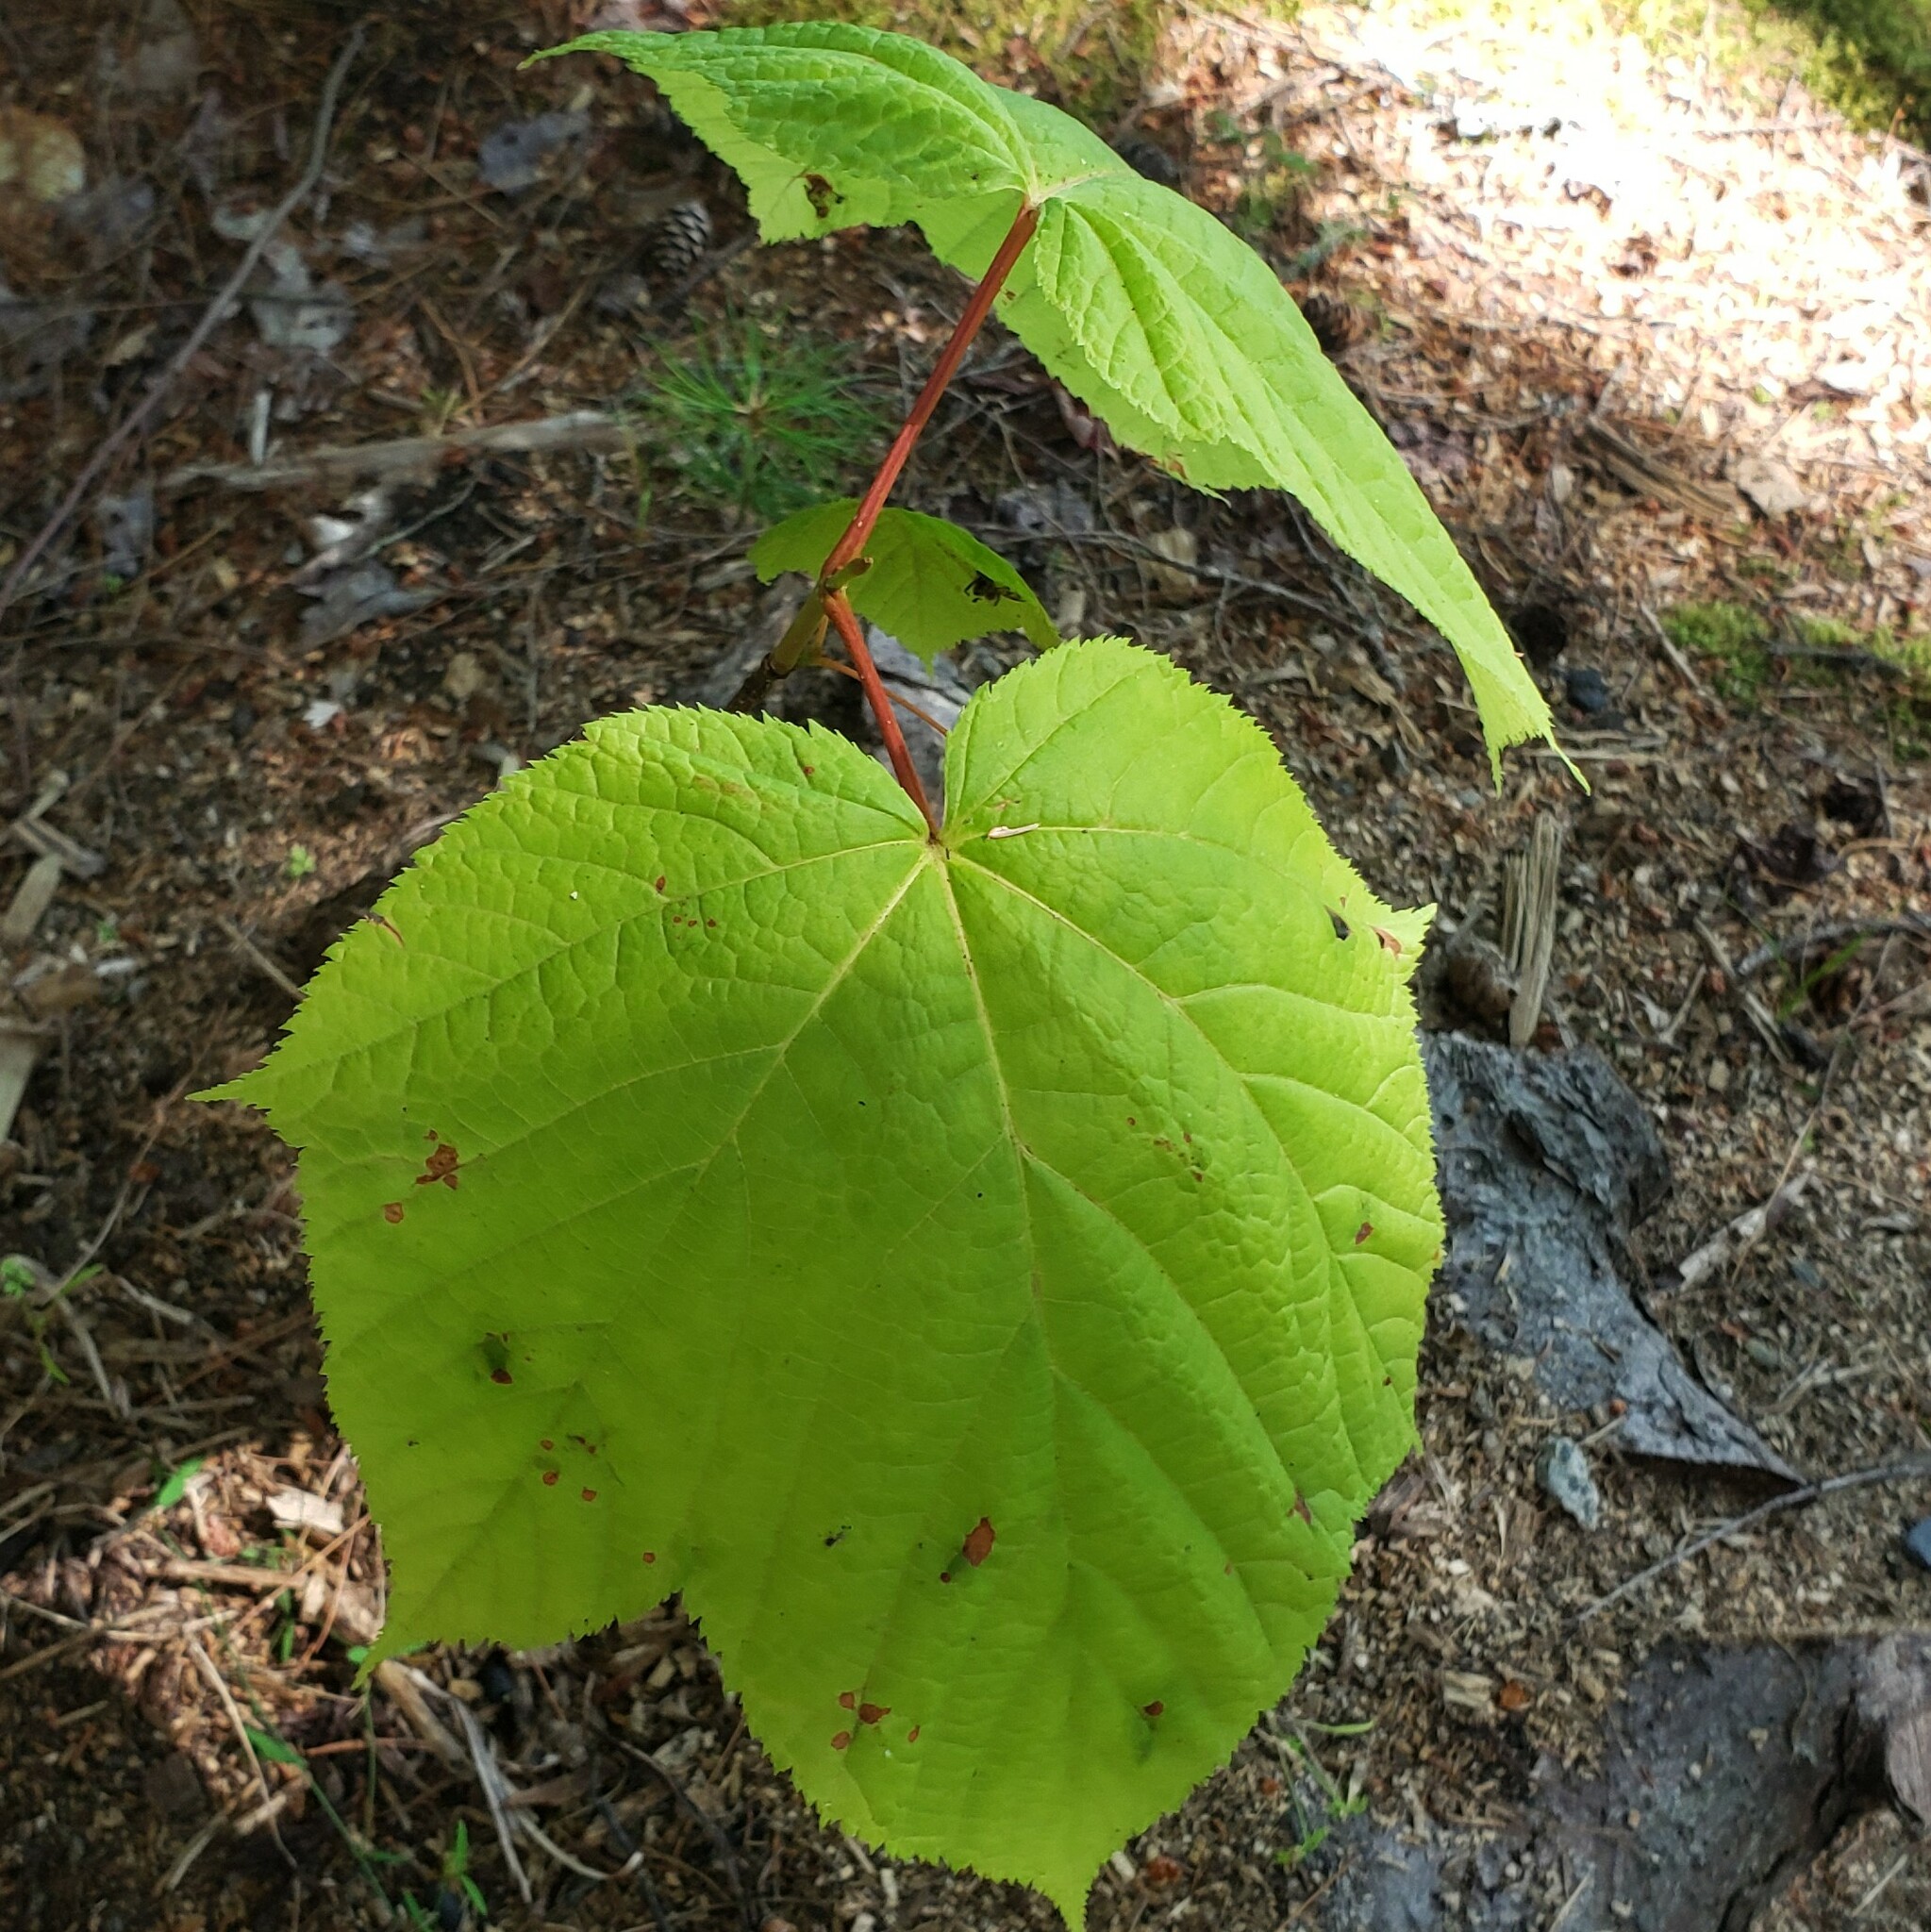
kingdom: Plantae
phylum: Tracheophyta
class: Magnoliopsida
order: Sapindales
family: Sapindaceae
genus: Acer
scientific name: Acer pensylvanicum
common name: Moosewood
